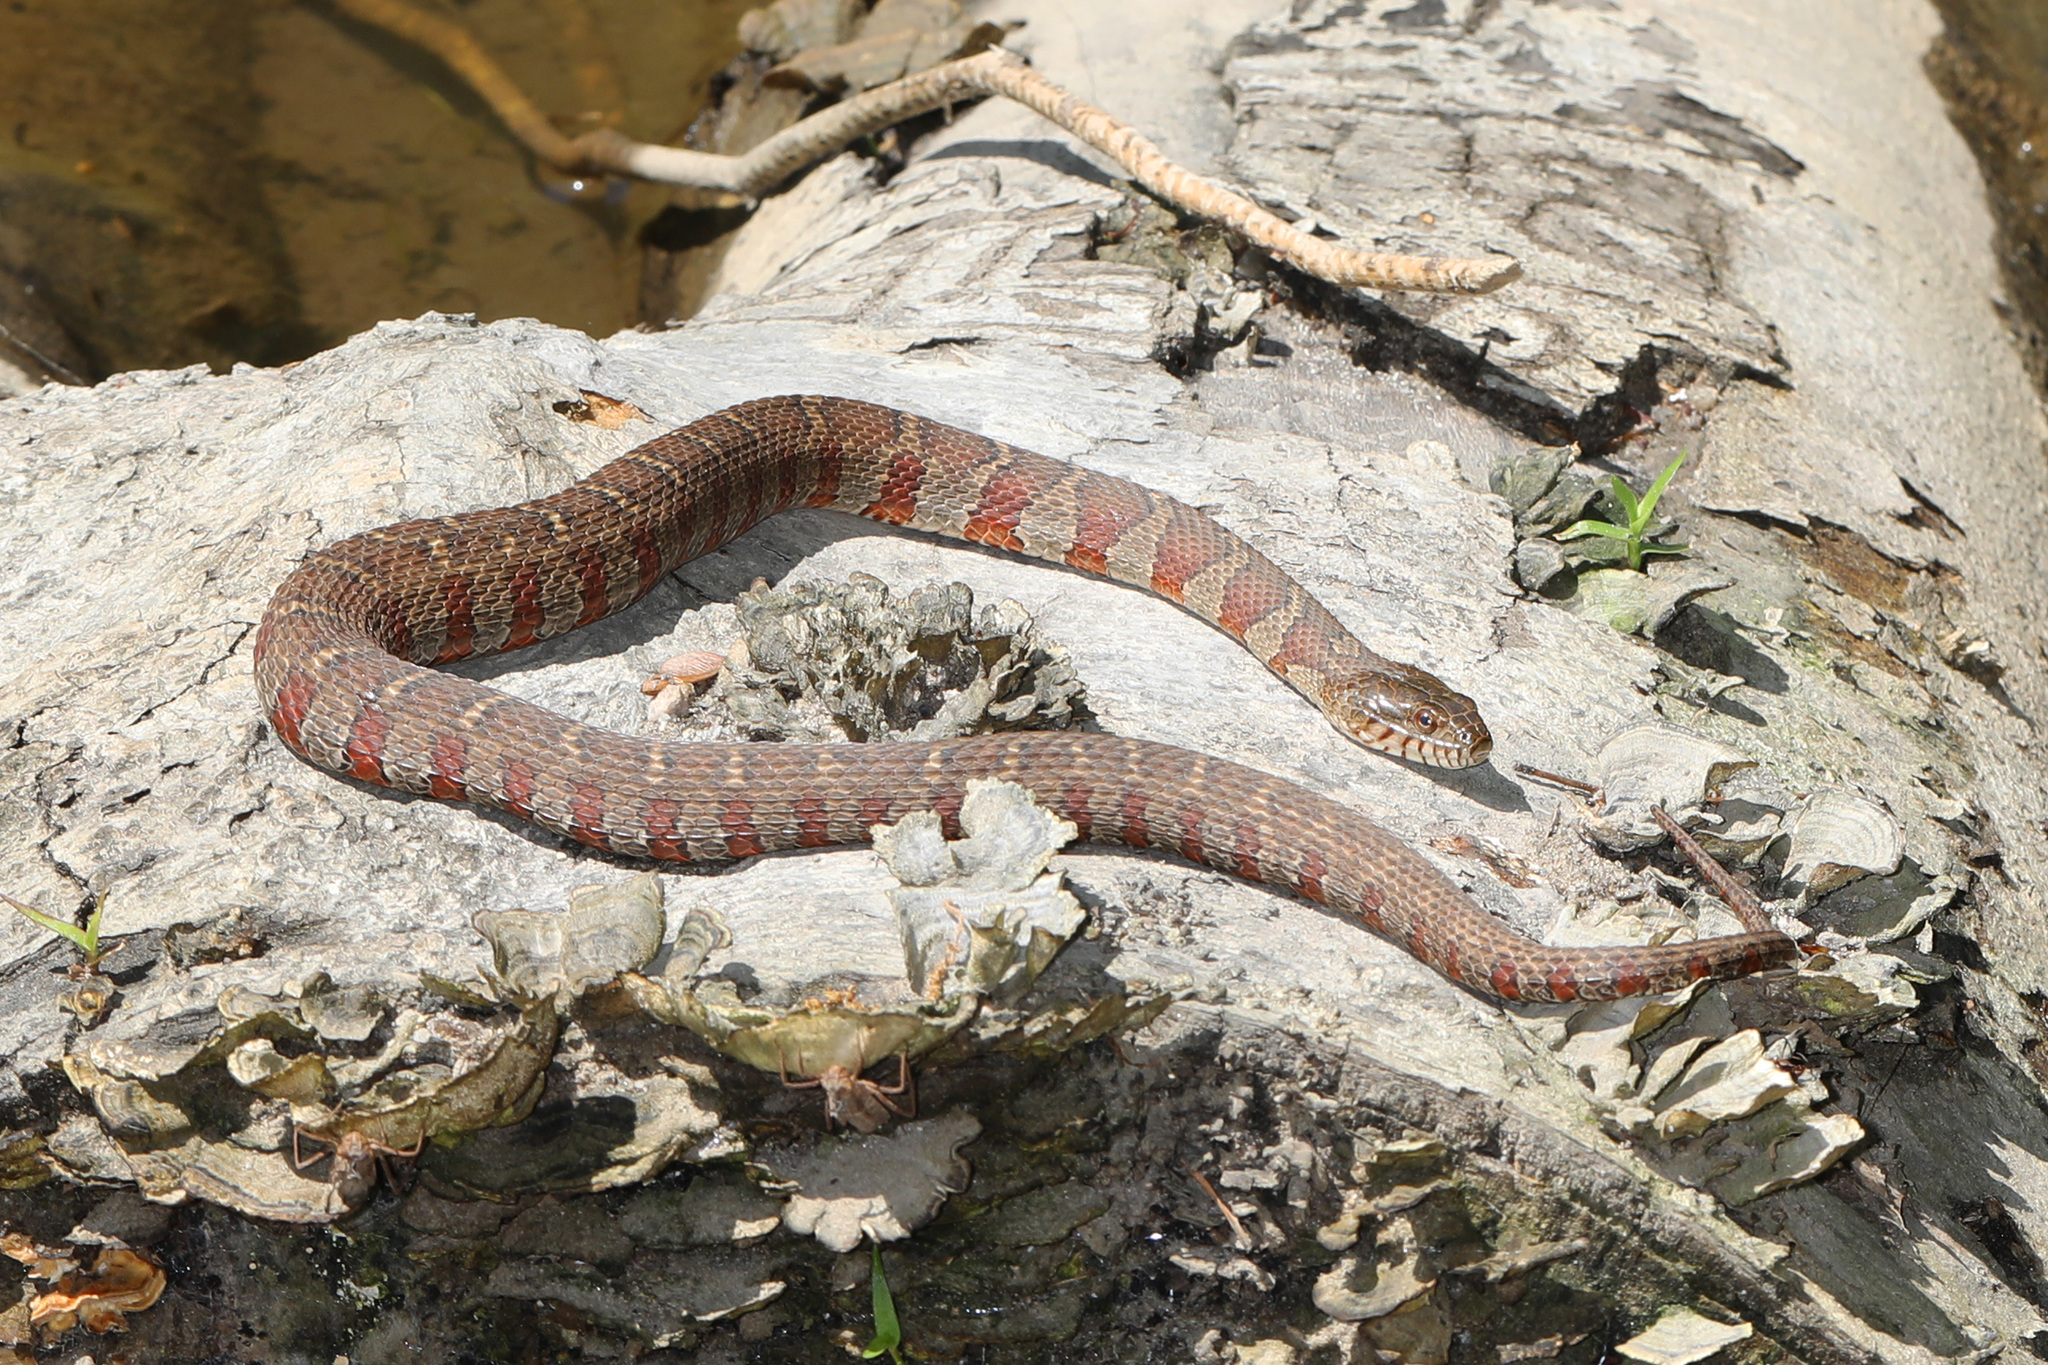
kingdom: Animalia
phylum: Chordata
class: Squamata
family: Colubridae
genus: Nerodia
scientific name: Nerodia sipedon
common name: Northern water snake
